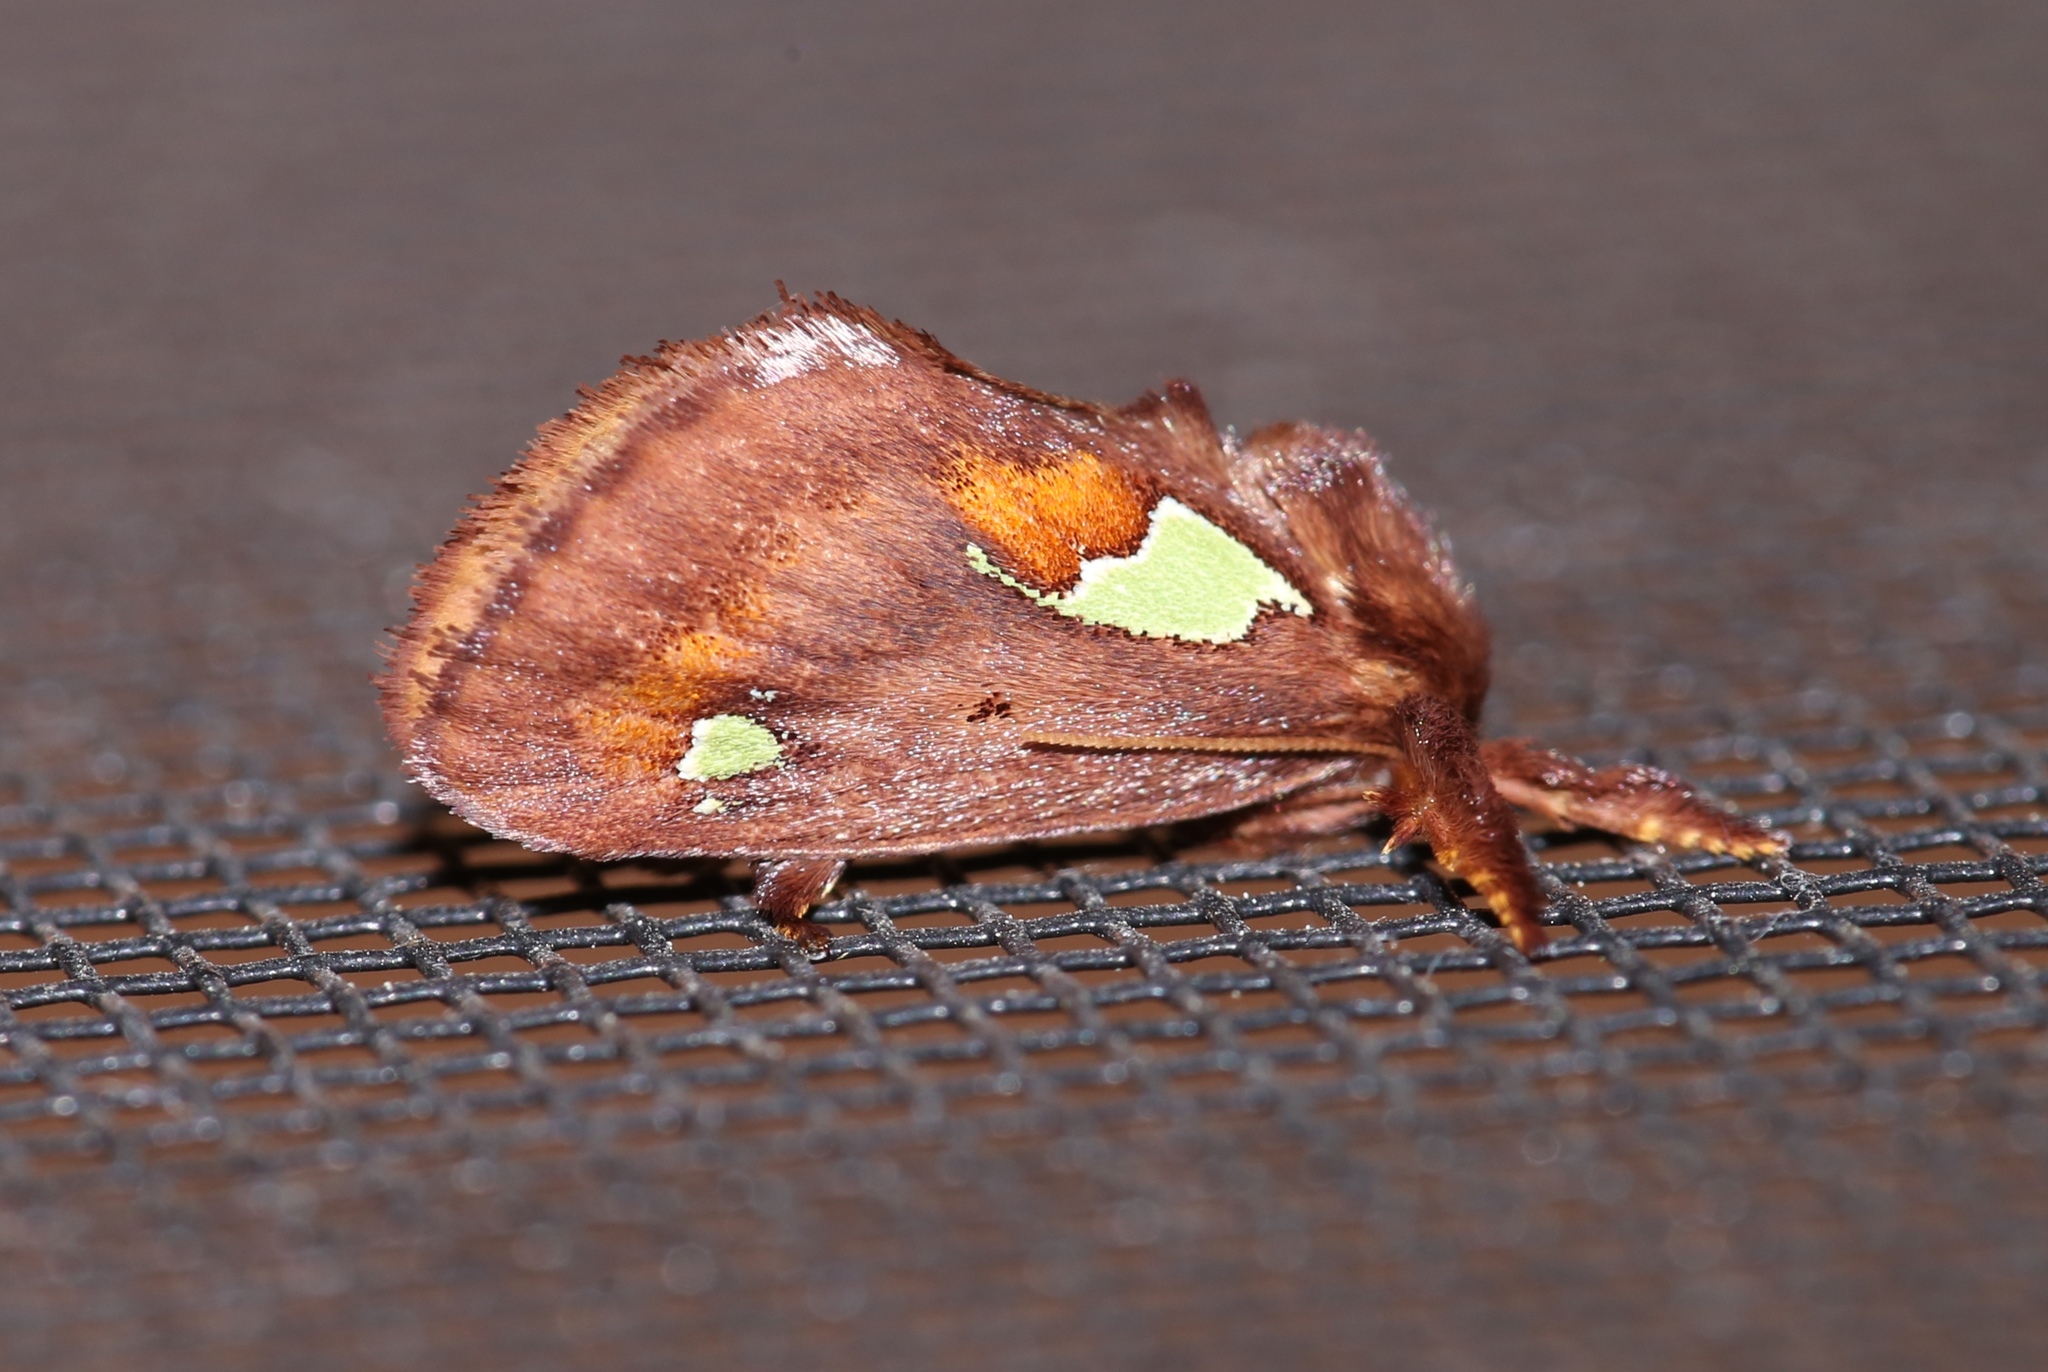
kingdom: Animalia
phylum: Arthropoda
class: Insecta
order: Lepidoptera
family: Limacodidae
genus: Euclea
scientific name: Euclea delphinii
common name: Spiny oak-slug moth
